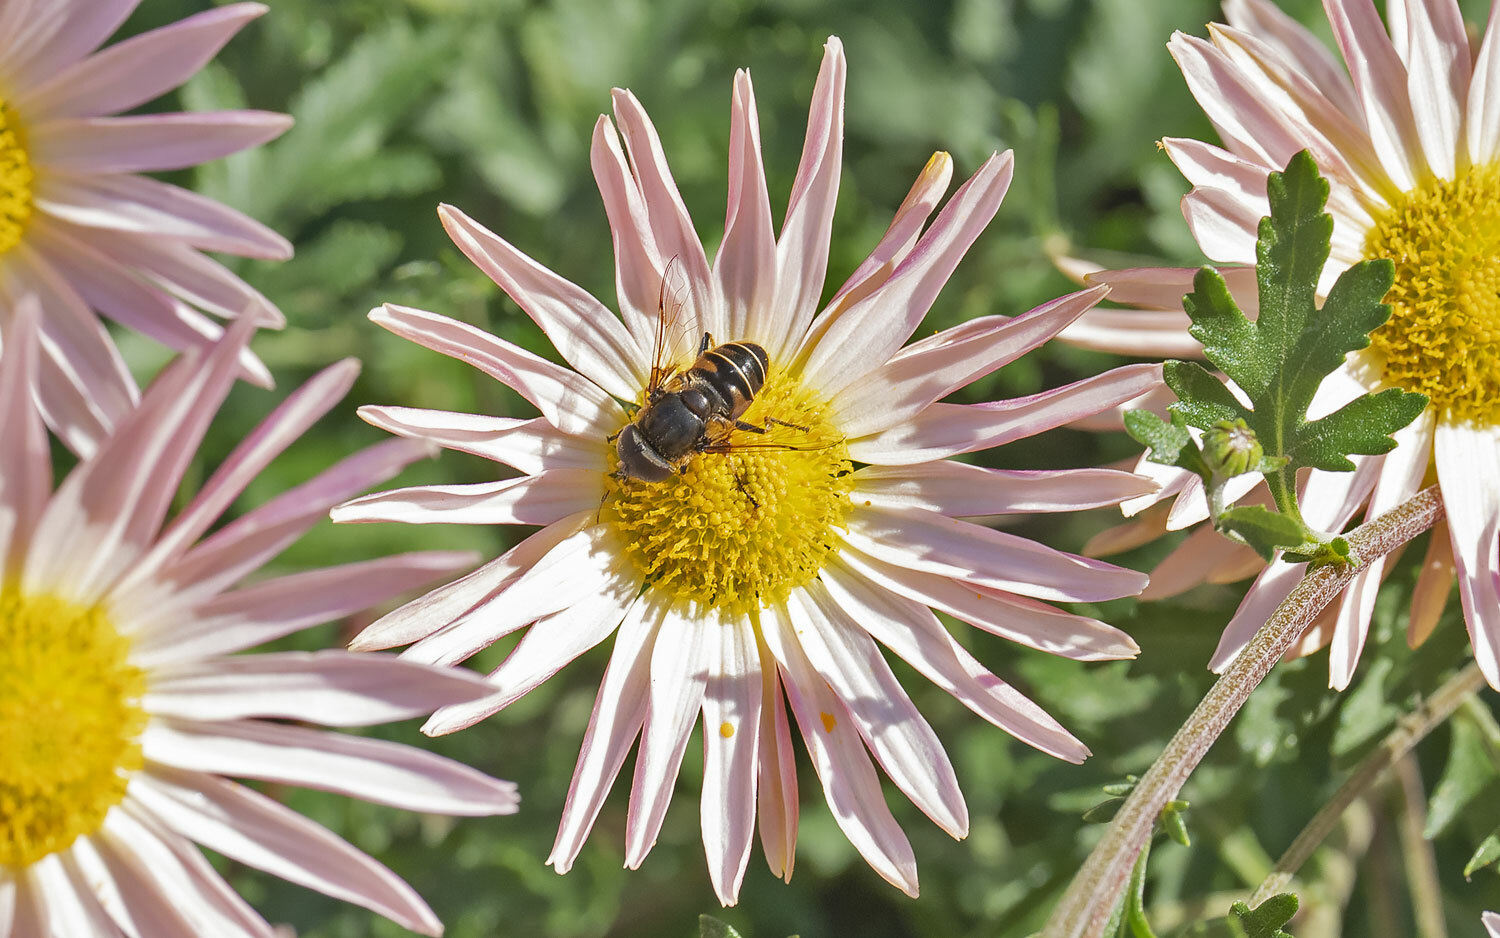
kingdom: Animalia
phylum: Arthropoda
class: Insecta
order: Diptera
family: Syrphidae
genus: Eristalis
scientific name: Eristalis dimidiata
